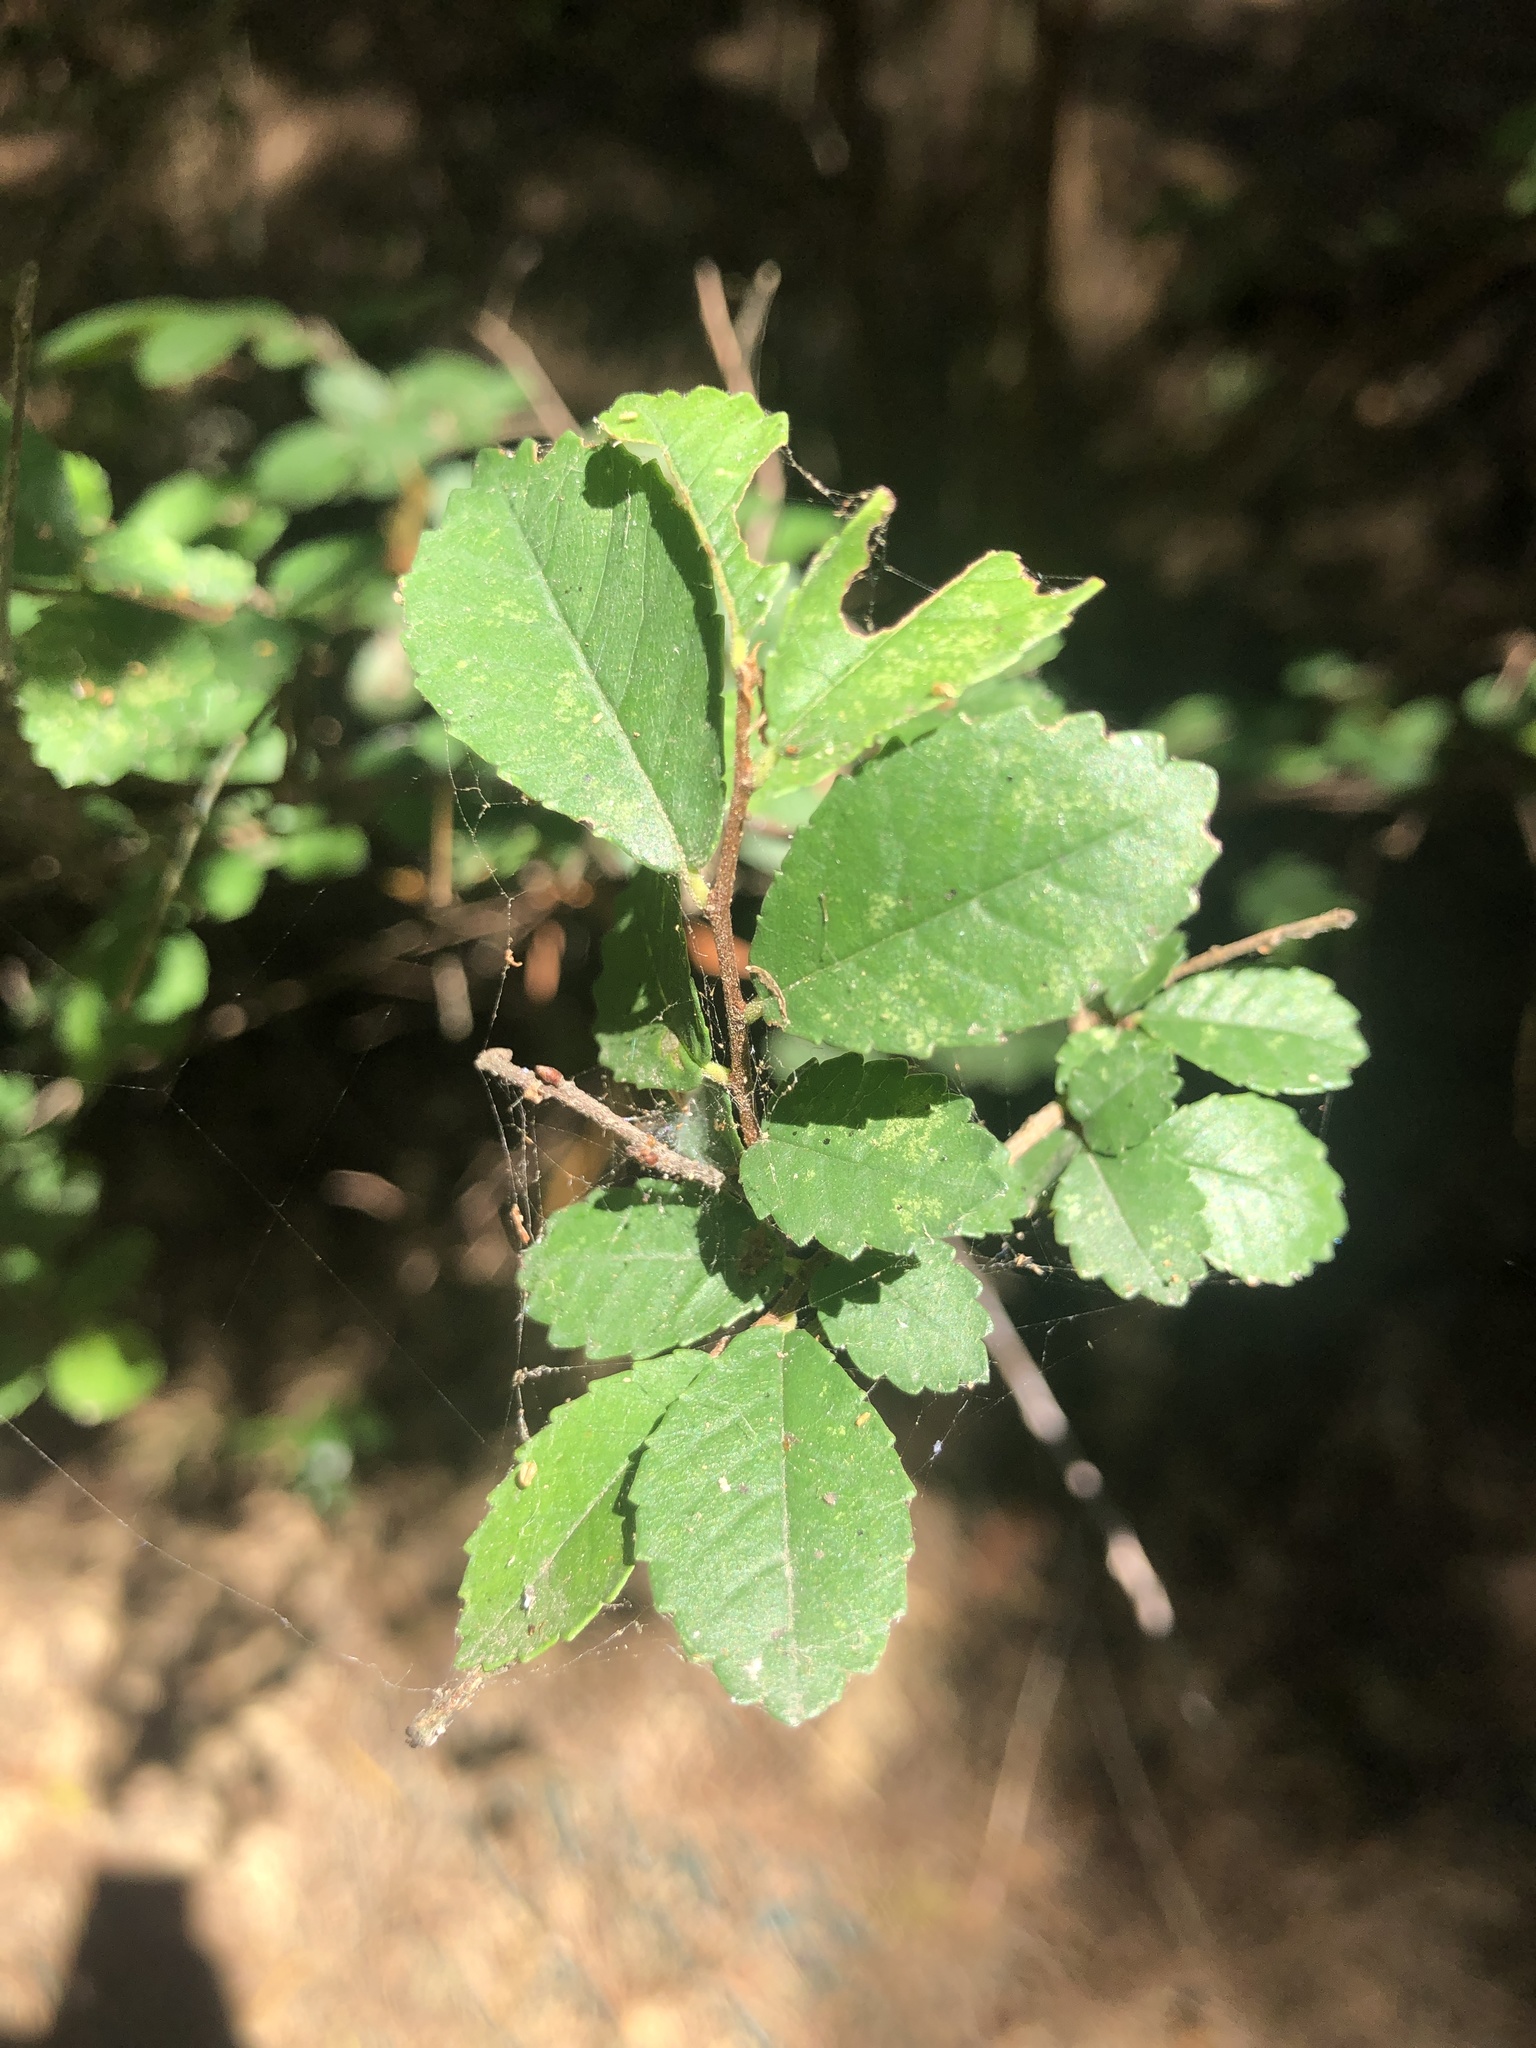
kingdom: Plantae
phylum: Tracheophyta
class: Magnoliopsida
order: Rosales
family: Ulmaceae
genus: Ulmus
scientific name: Ulmus parvifolia
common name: Chinese elm
